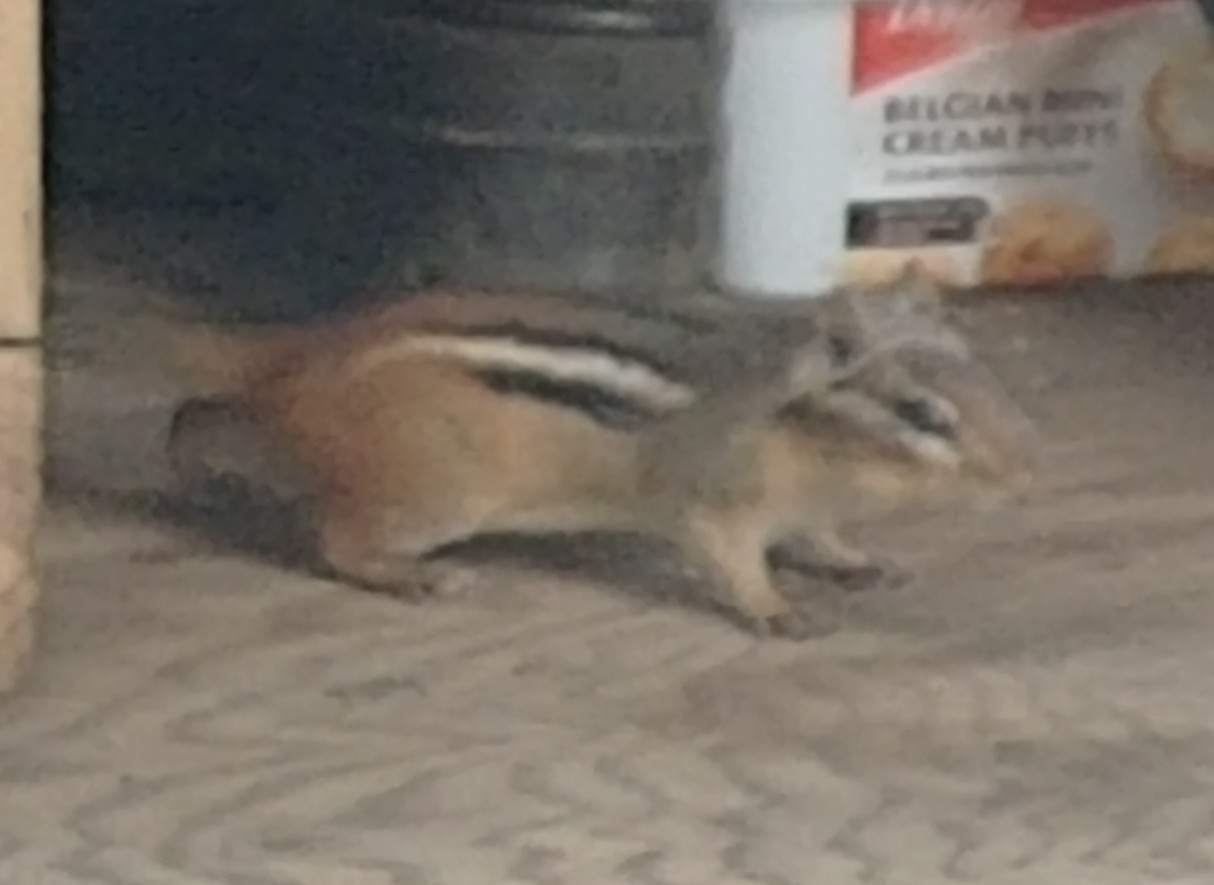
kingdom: Animalia
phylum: Chordata
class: Mammalia
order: Rodentia
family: Sciuridae
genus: Tamias
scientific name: Tamias striatus
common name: Eastern chipmunk
